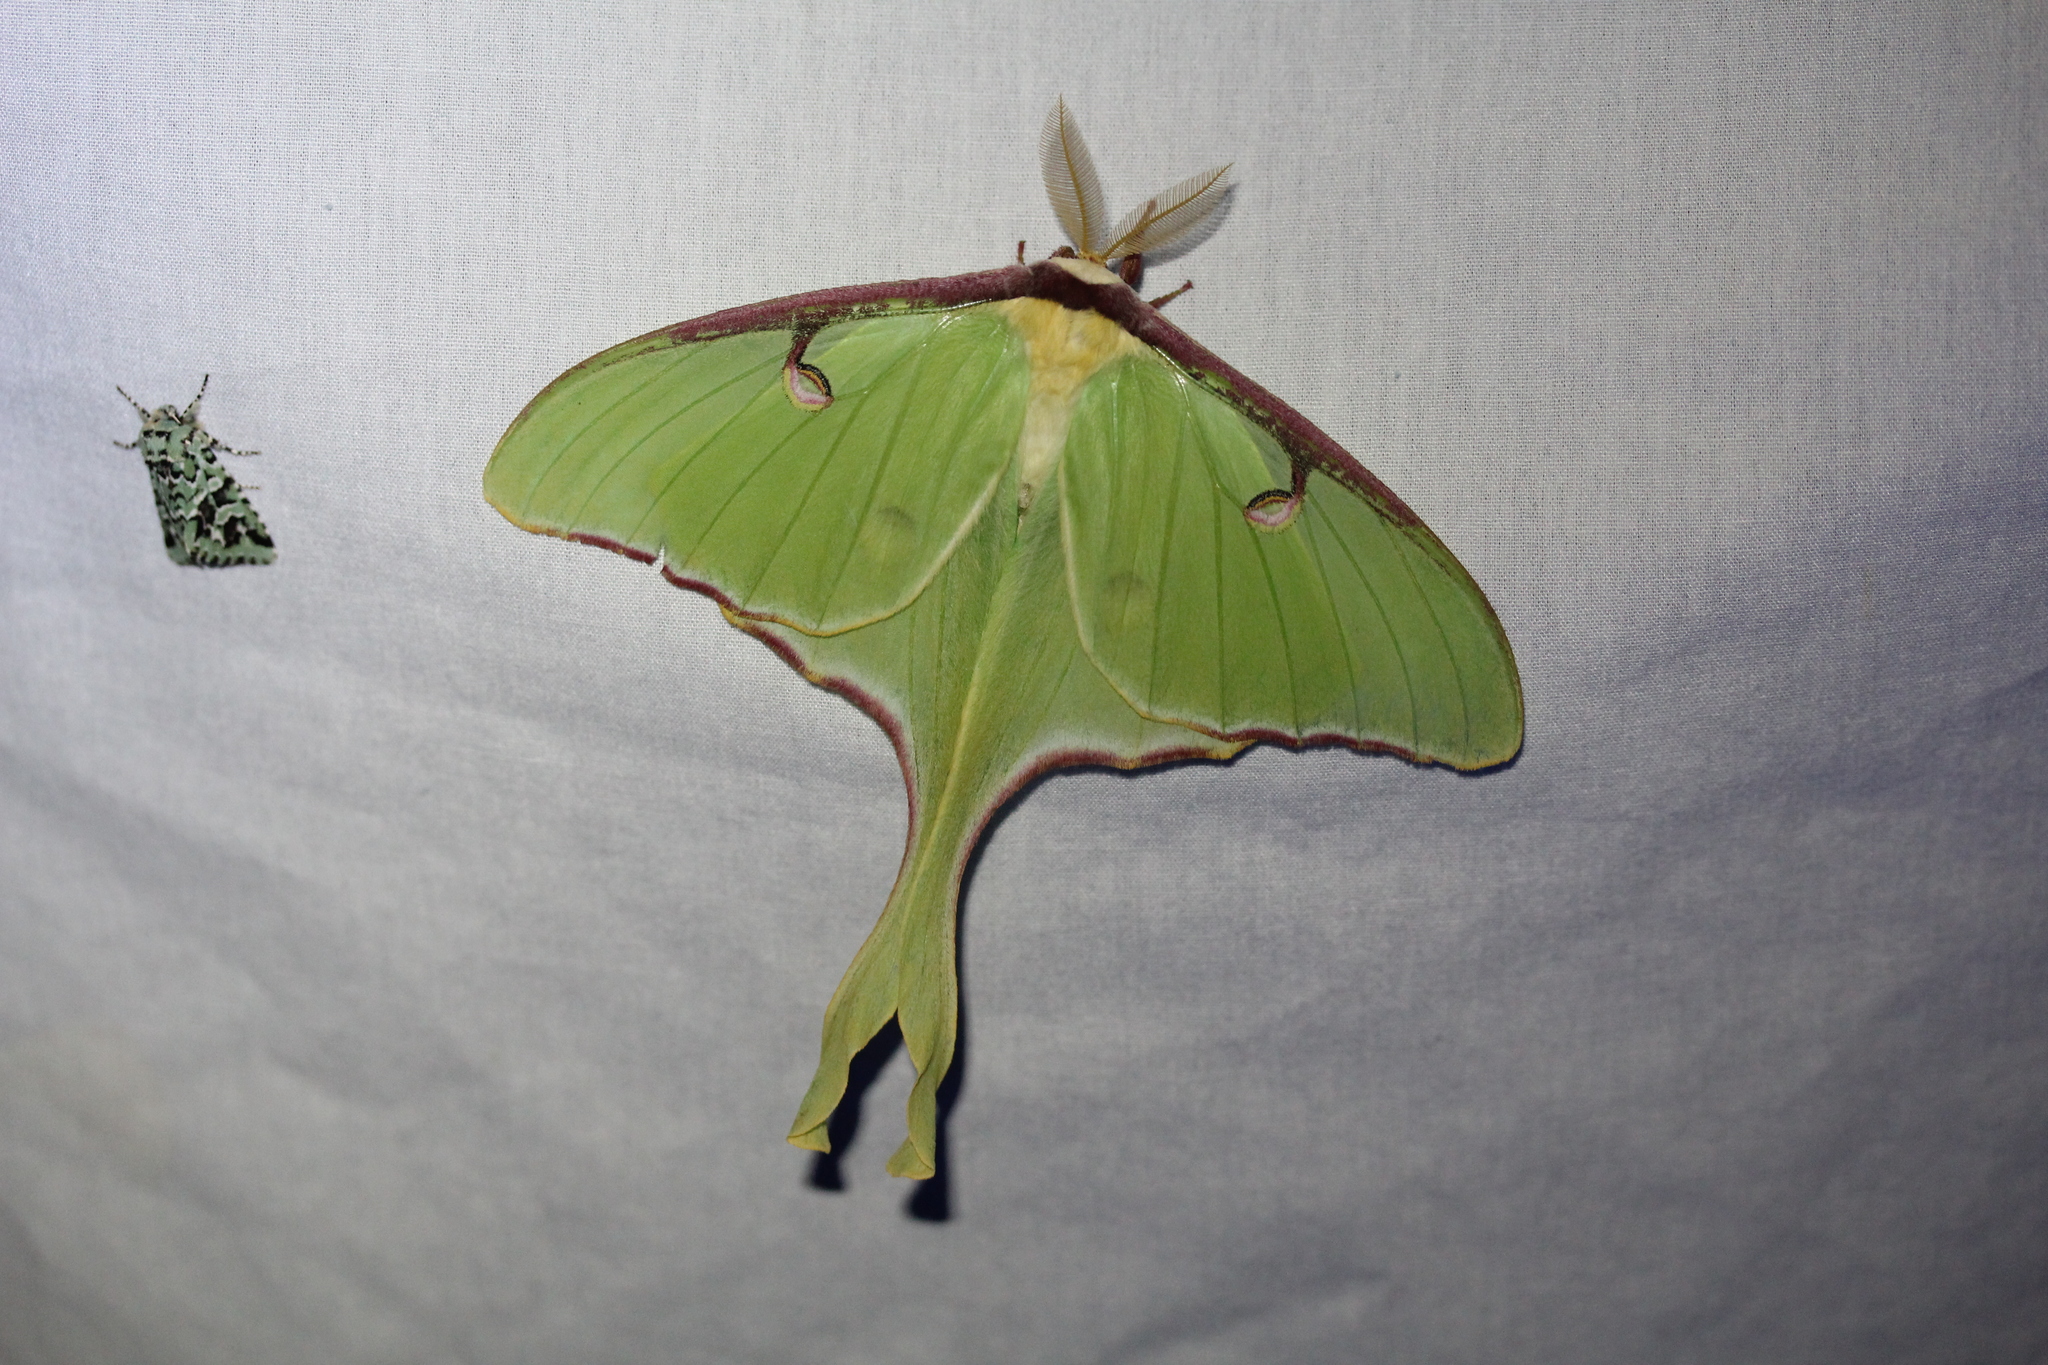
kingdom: Animalia
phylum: Arthropoda
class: Insecta
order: Lepidoptera
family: Saturniidae
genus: Actias
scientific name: Actias luna
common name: Luna moth
